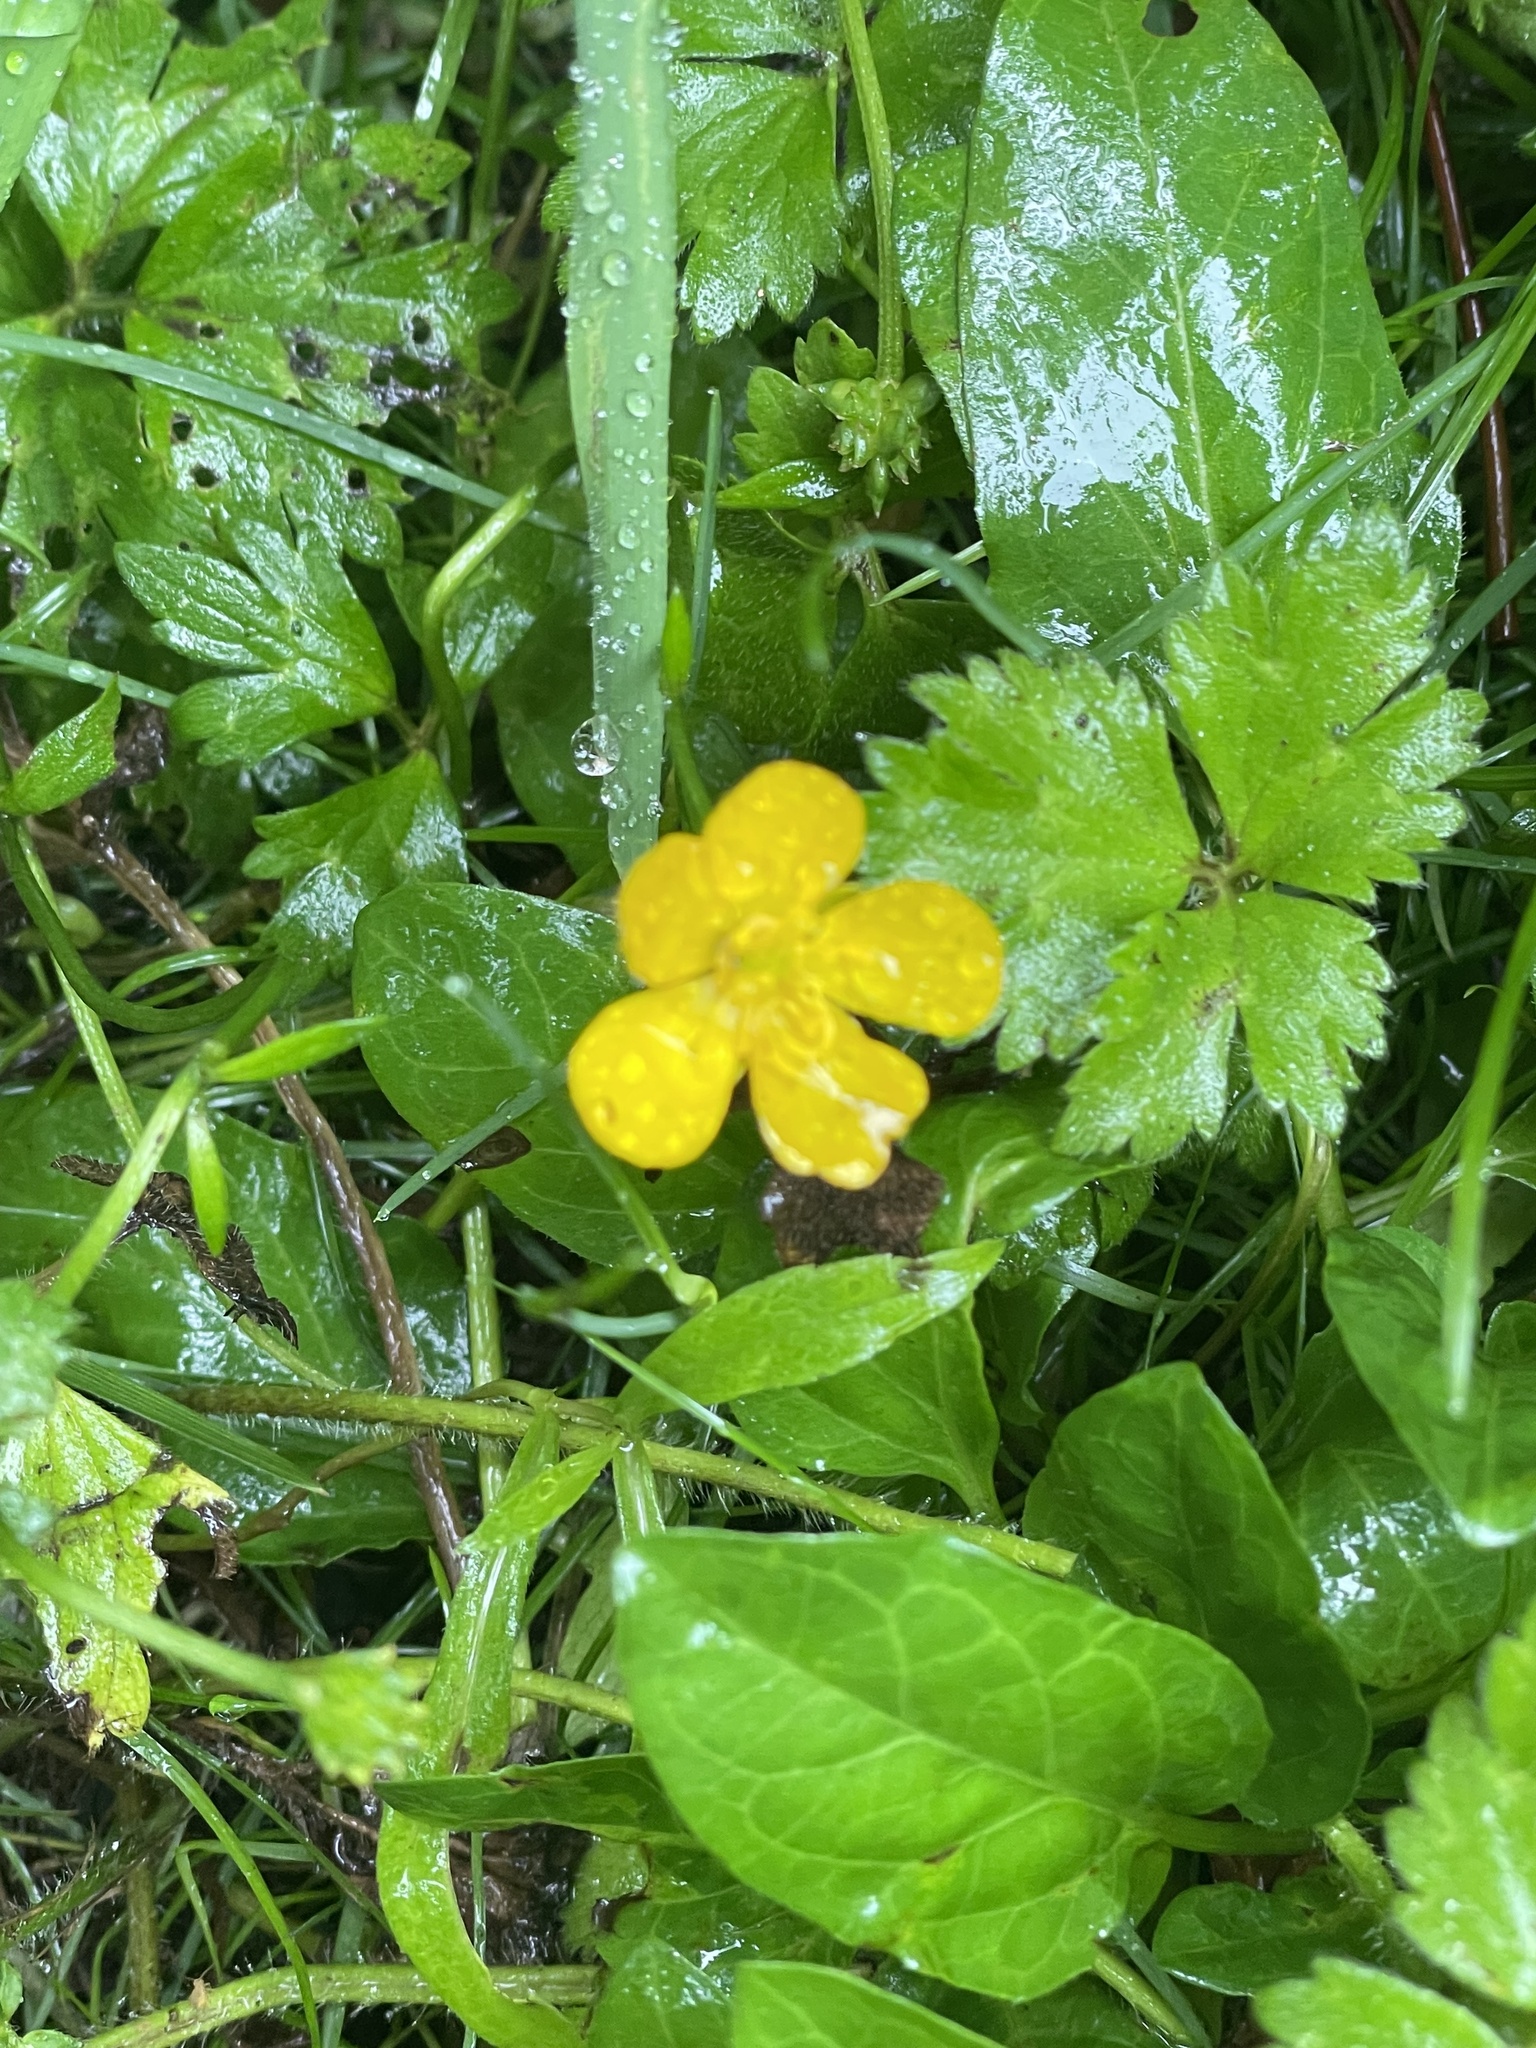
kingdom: Plantae
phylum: Tracheophyta
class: Magnoliopsida
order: Ranunculales
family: Ranunculaceae
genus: Ranunculus
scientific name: Ranunculus repens
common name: Creeping buttercup
